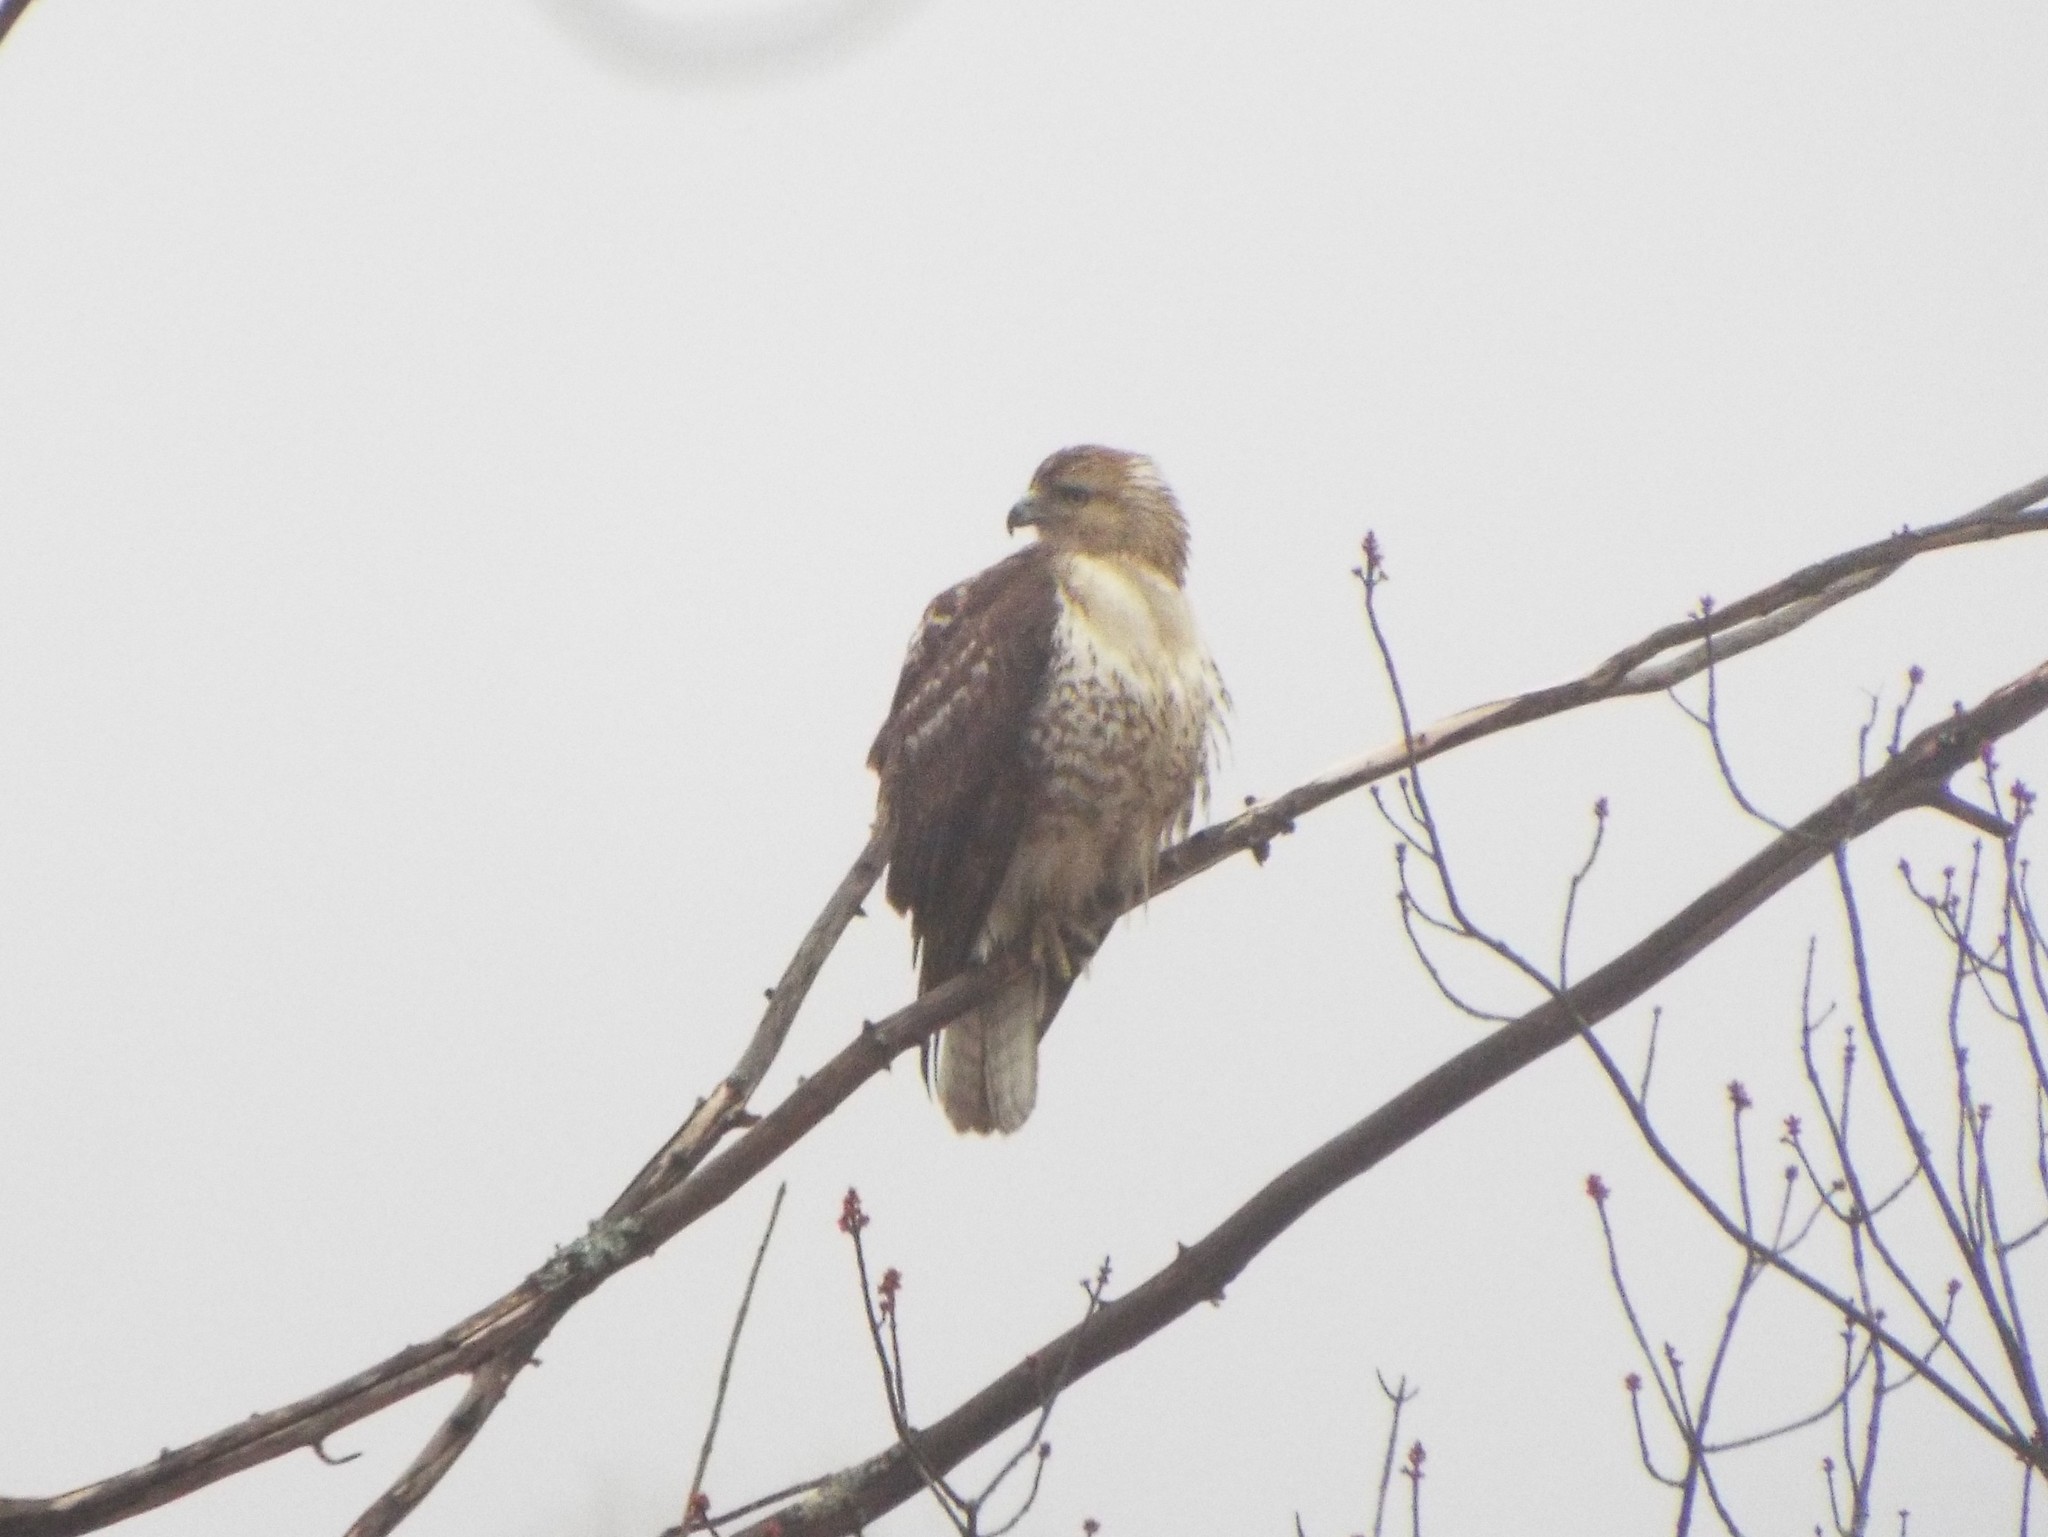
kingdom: Animalia
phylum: Chordata
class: Aves
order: Accipitriformes
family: Accipitridae
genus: Buteo
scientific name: Buteo jamaicensis
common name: Red-tailed hawk
